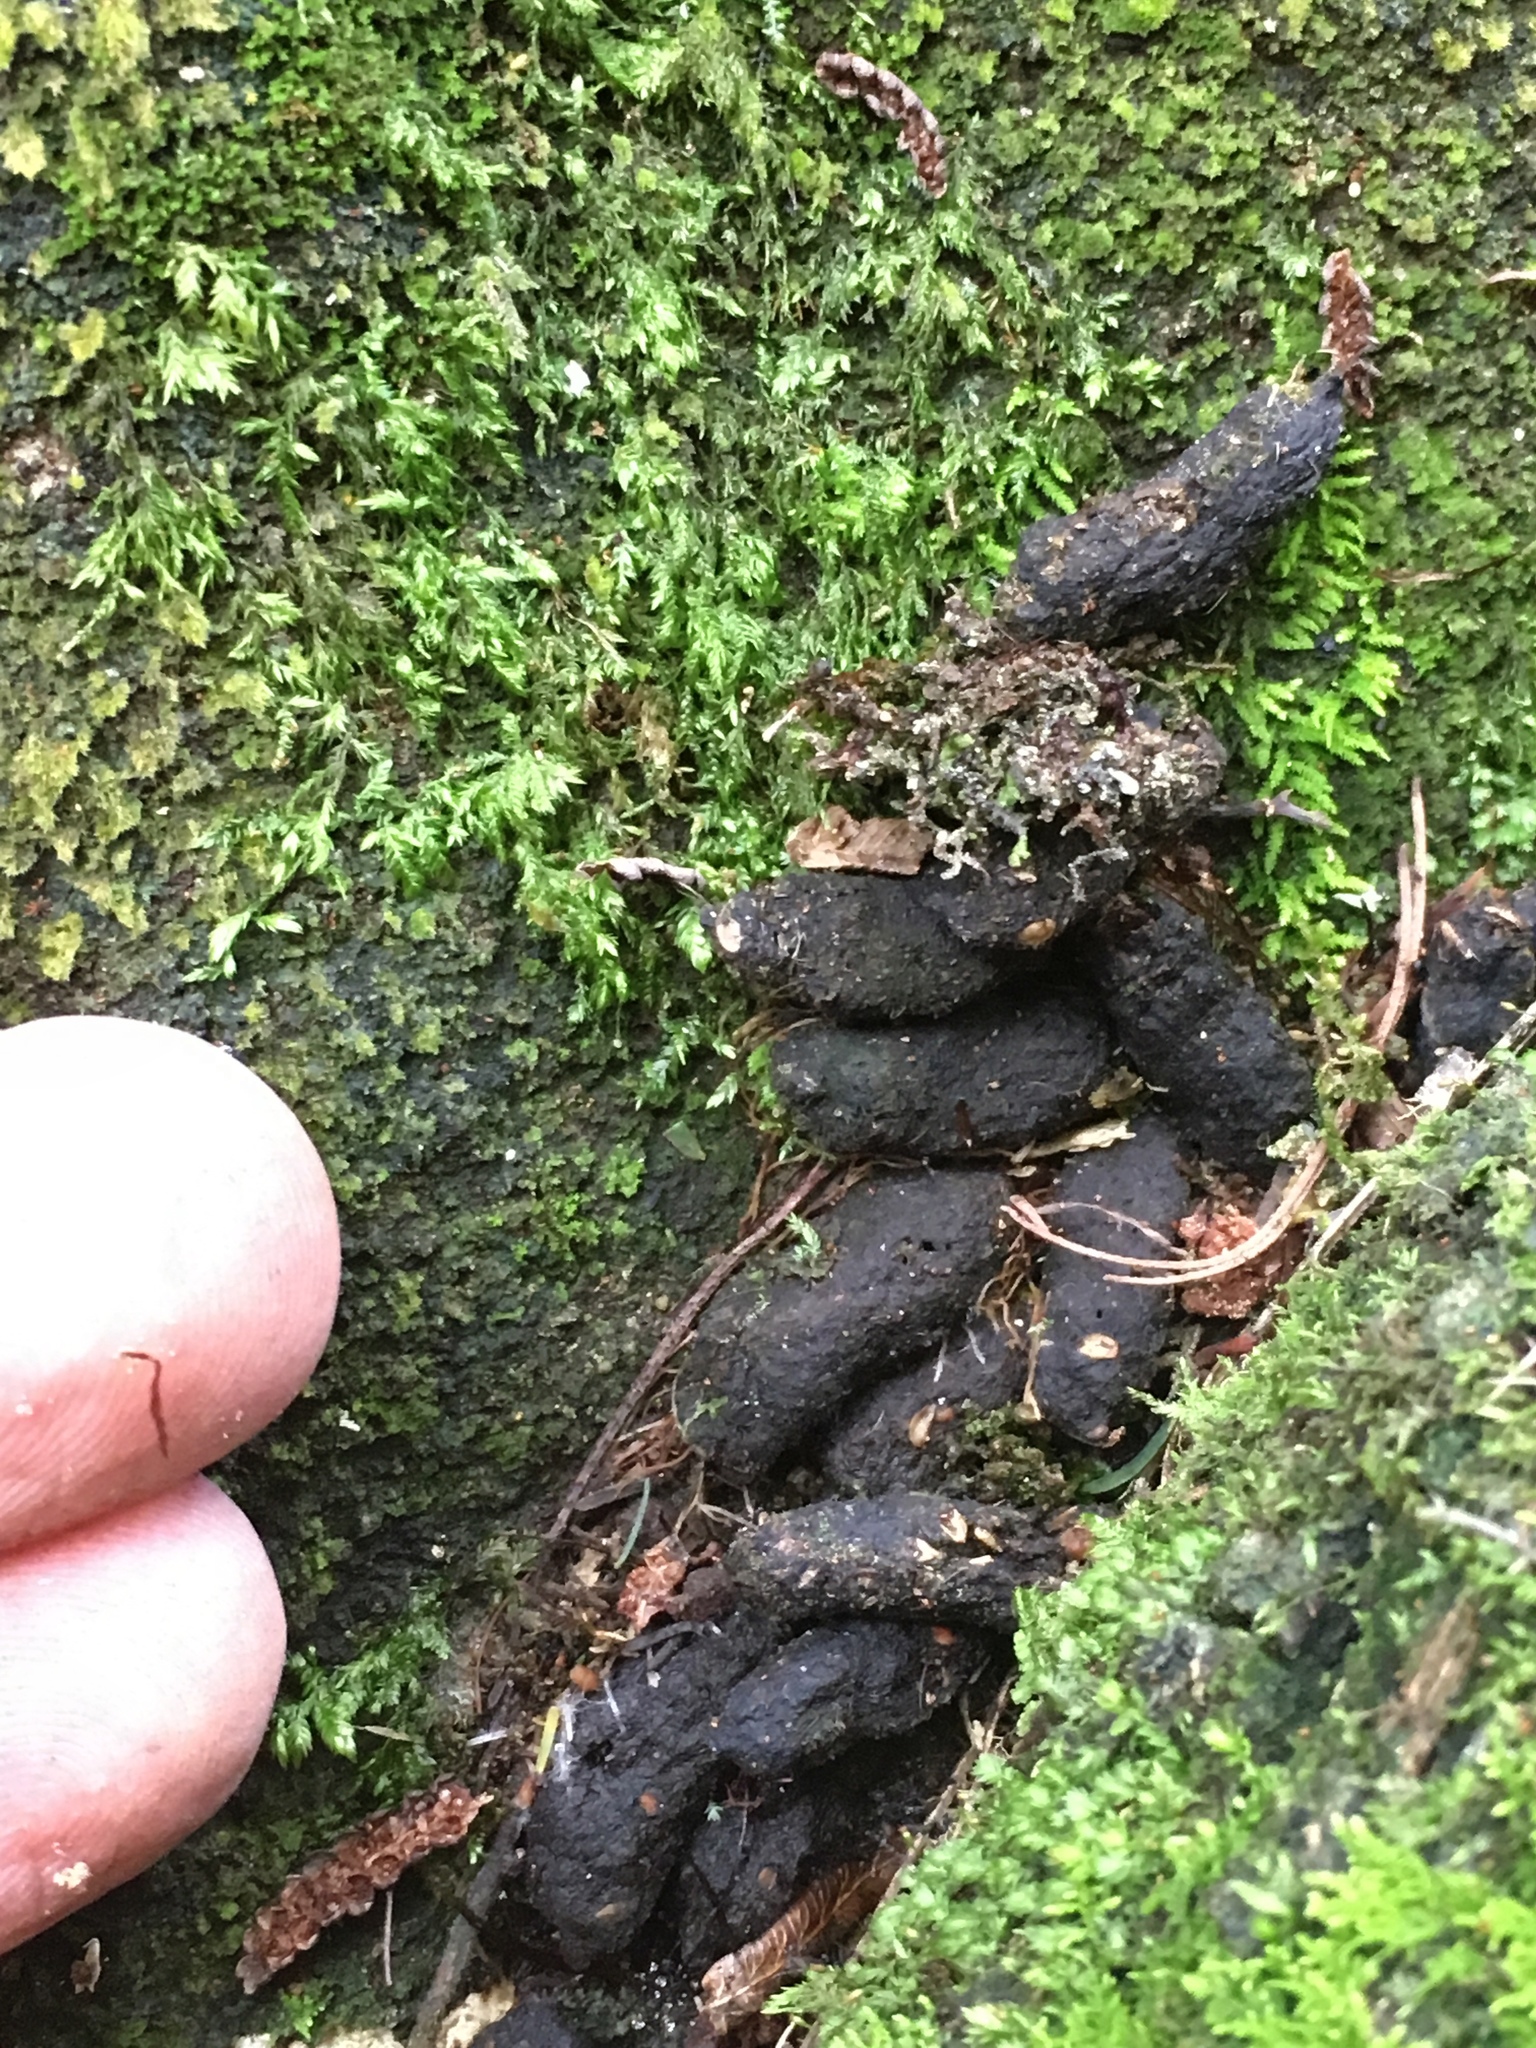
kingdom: Animalia
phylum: Chordata
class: Mammalia
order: Diprotodontia
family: Phalangeridae
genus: Trichosurus
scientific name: Trichosurus vulpecula
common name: Common brushtail
